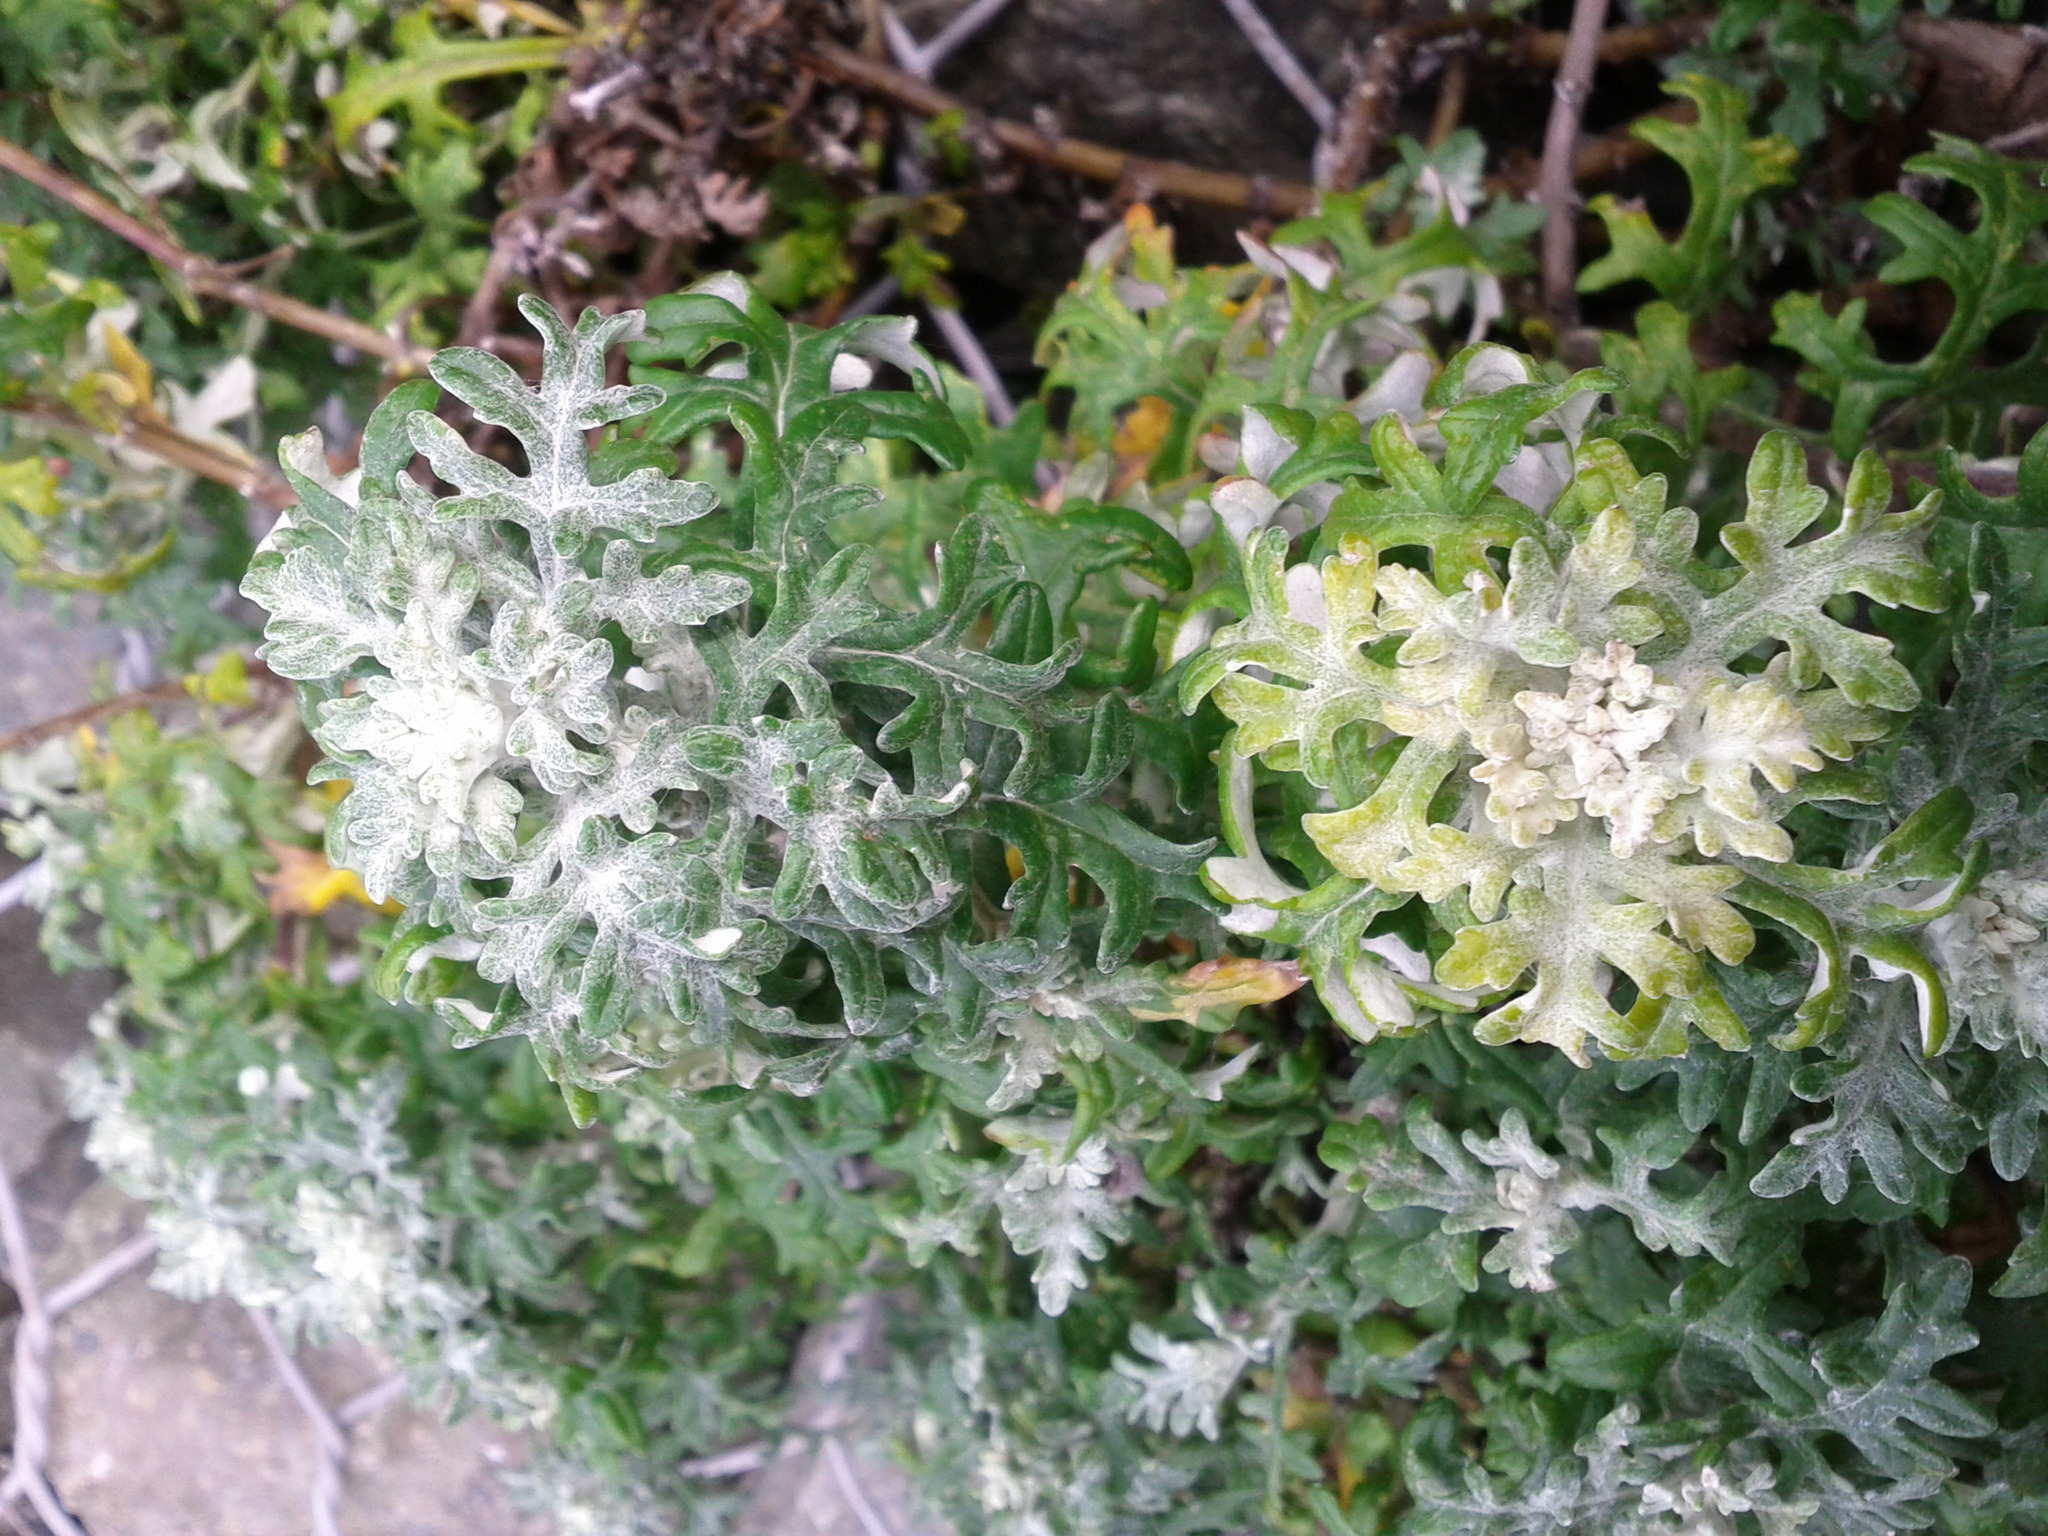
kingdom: Plantae
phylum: Tracheophyta
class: Magnoliopsida
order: Asterales
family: Asteraceae
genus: Eriophyllum
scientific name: Eriophyllum staechadifolium
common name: Lizardtail
